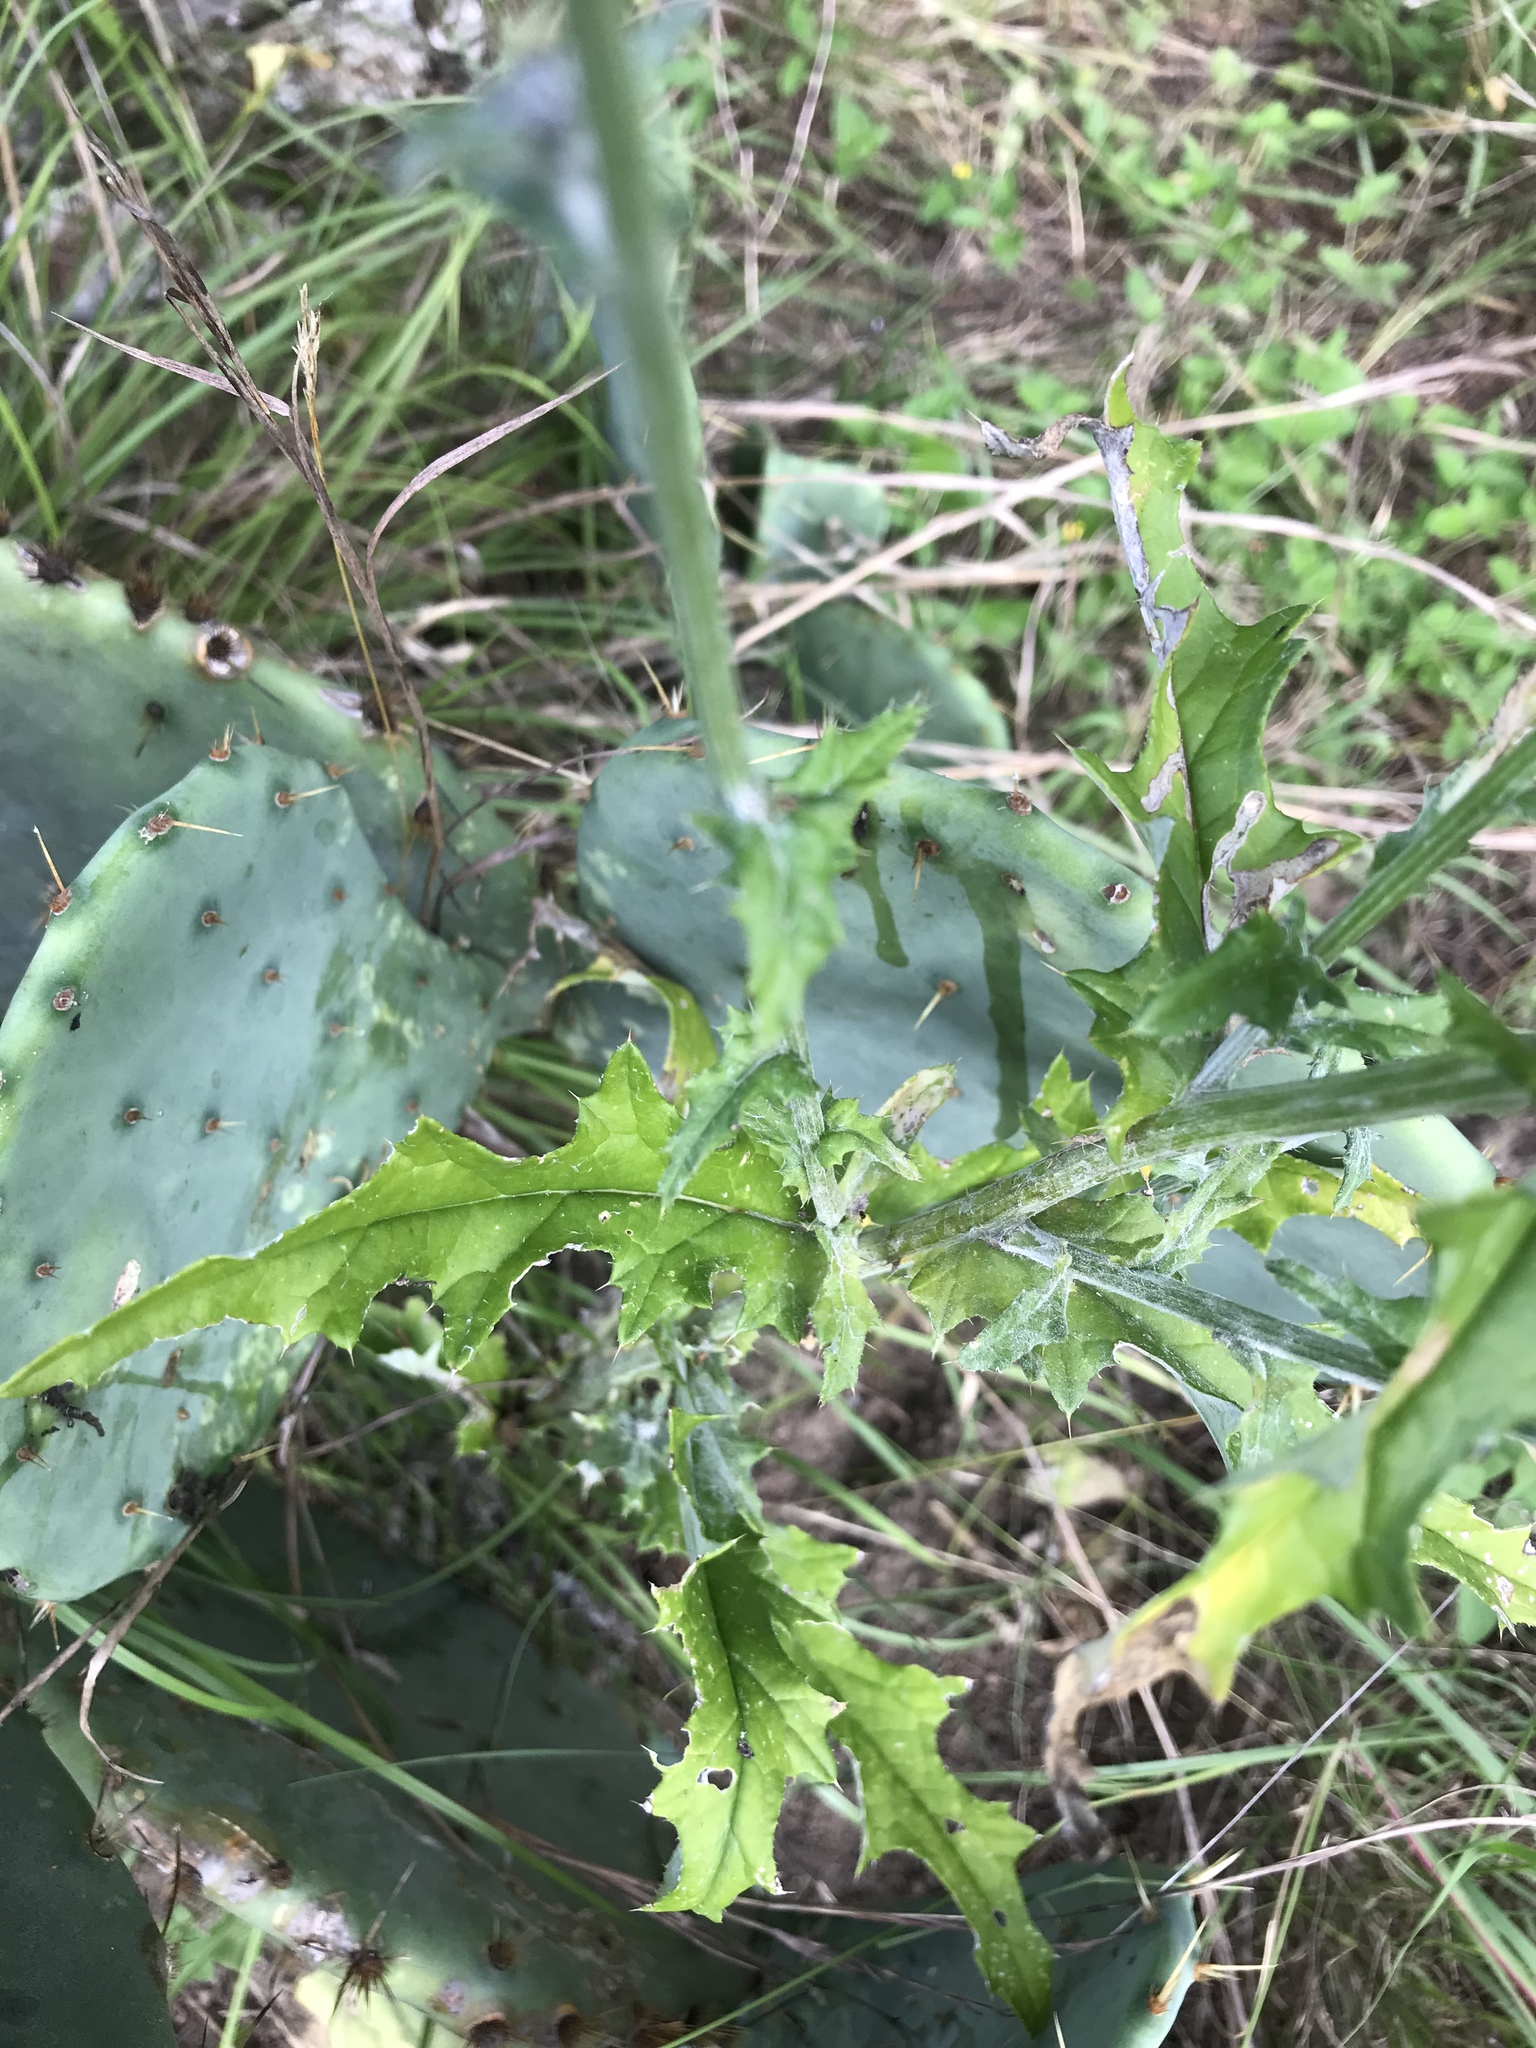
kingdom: Plantae
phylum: Tracheophyta
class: Magnoliopsida
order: Asterales
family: Asteraceae
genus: Cirsium
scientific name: Cirsium texanum
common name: Texas purple thistle
